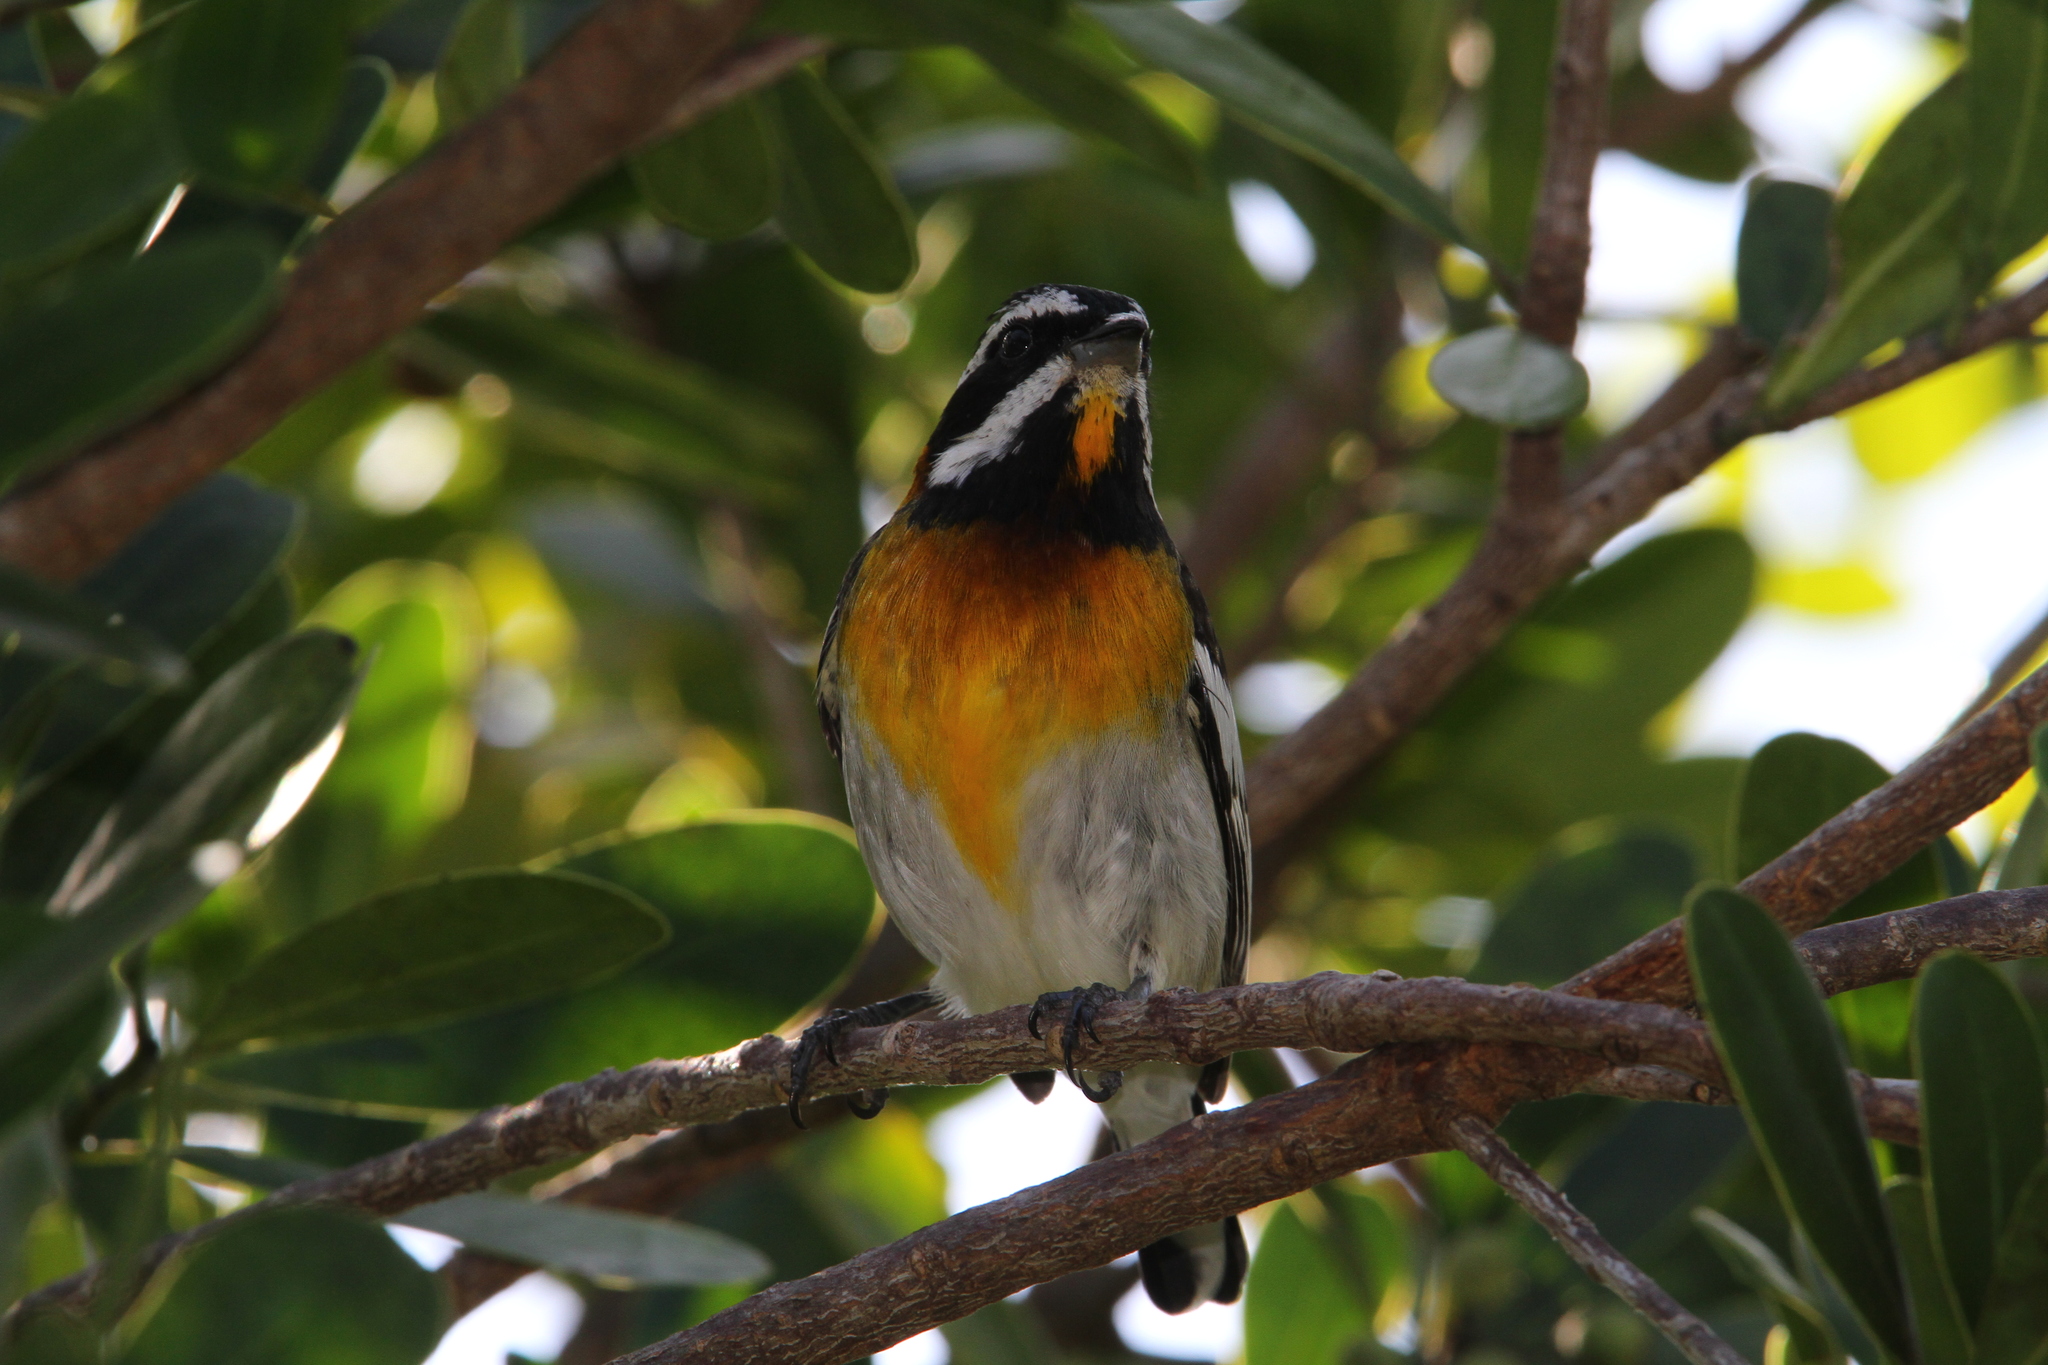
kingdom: Animalia
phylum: Chordata
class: Aves
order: Passeriformes
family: Spindalidae
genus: Spindalis
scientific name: Spindalis zena
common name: Western spindalis
